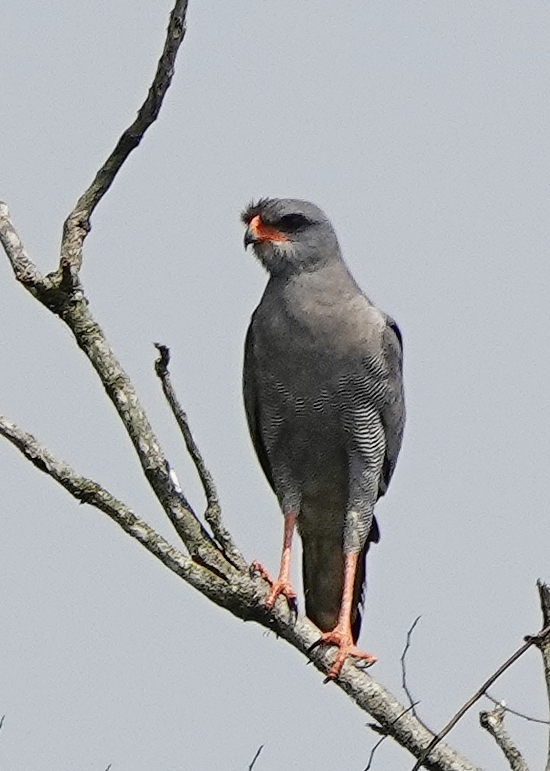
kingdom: Animalia
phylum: Chordata
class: Aves
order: Accipitriformes
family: Accipitridae
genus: Melierax
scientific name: Melierax metabates
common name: Dark chanting-goshawk
